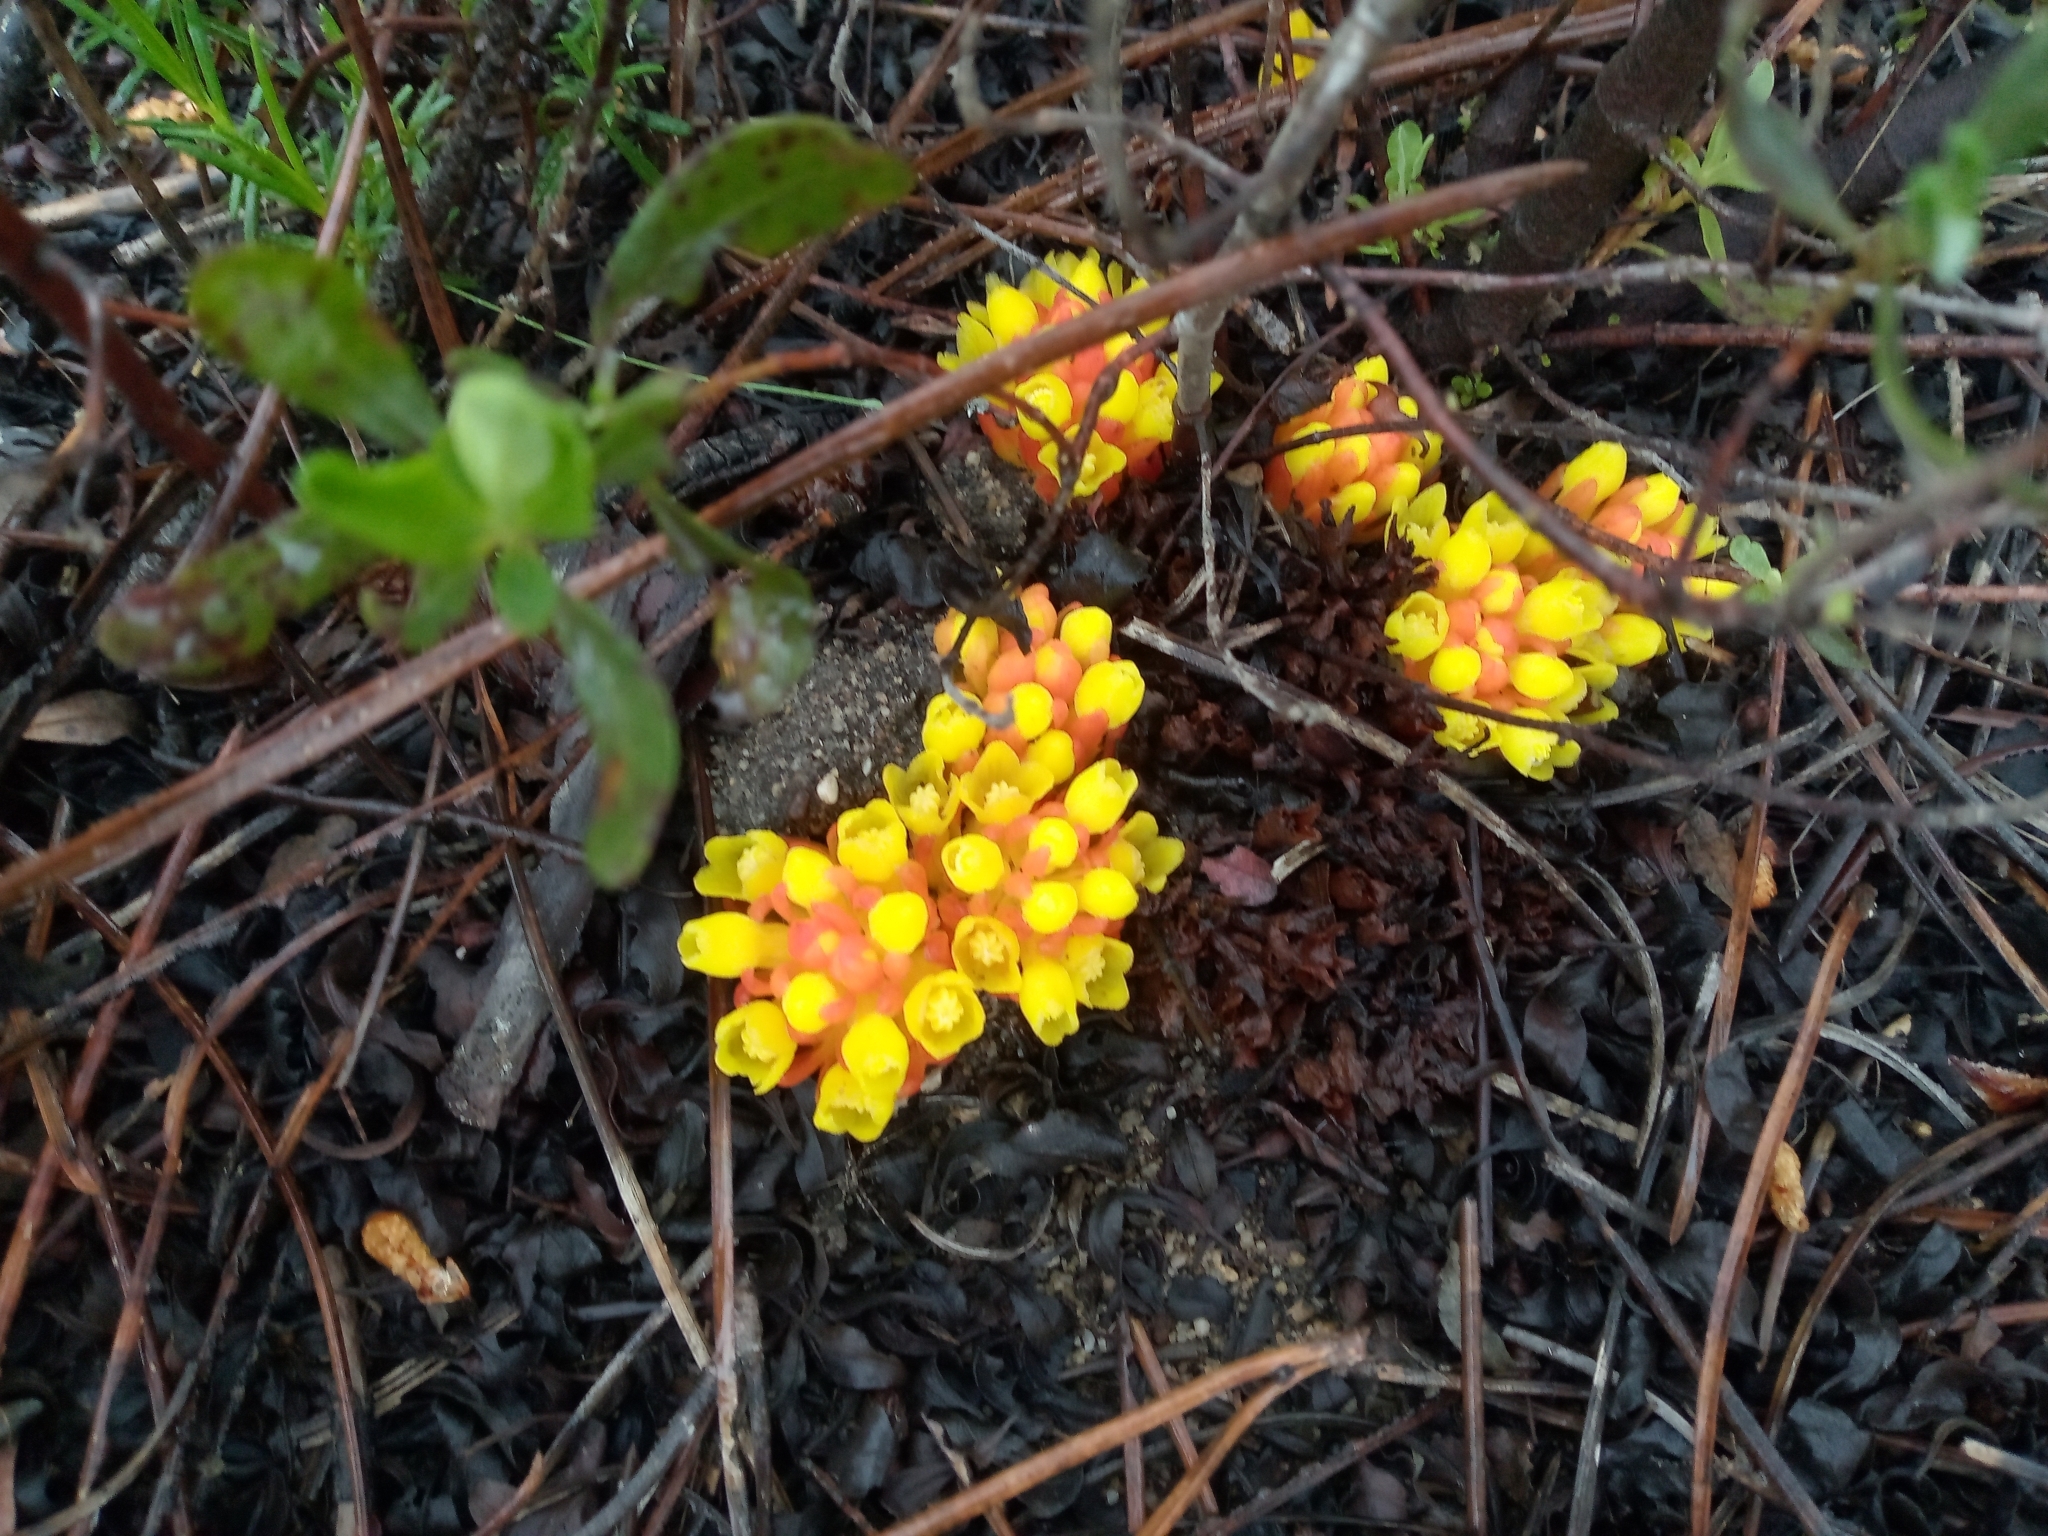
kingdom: Plantae
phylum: Tracheophyta
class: Magnoliopsida
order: Malvales
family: Cytinaceae
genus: Cytinus
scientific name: Cytinus hypocistis
